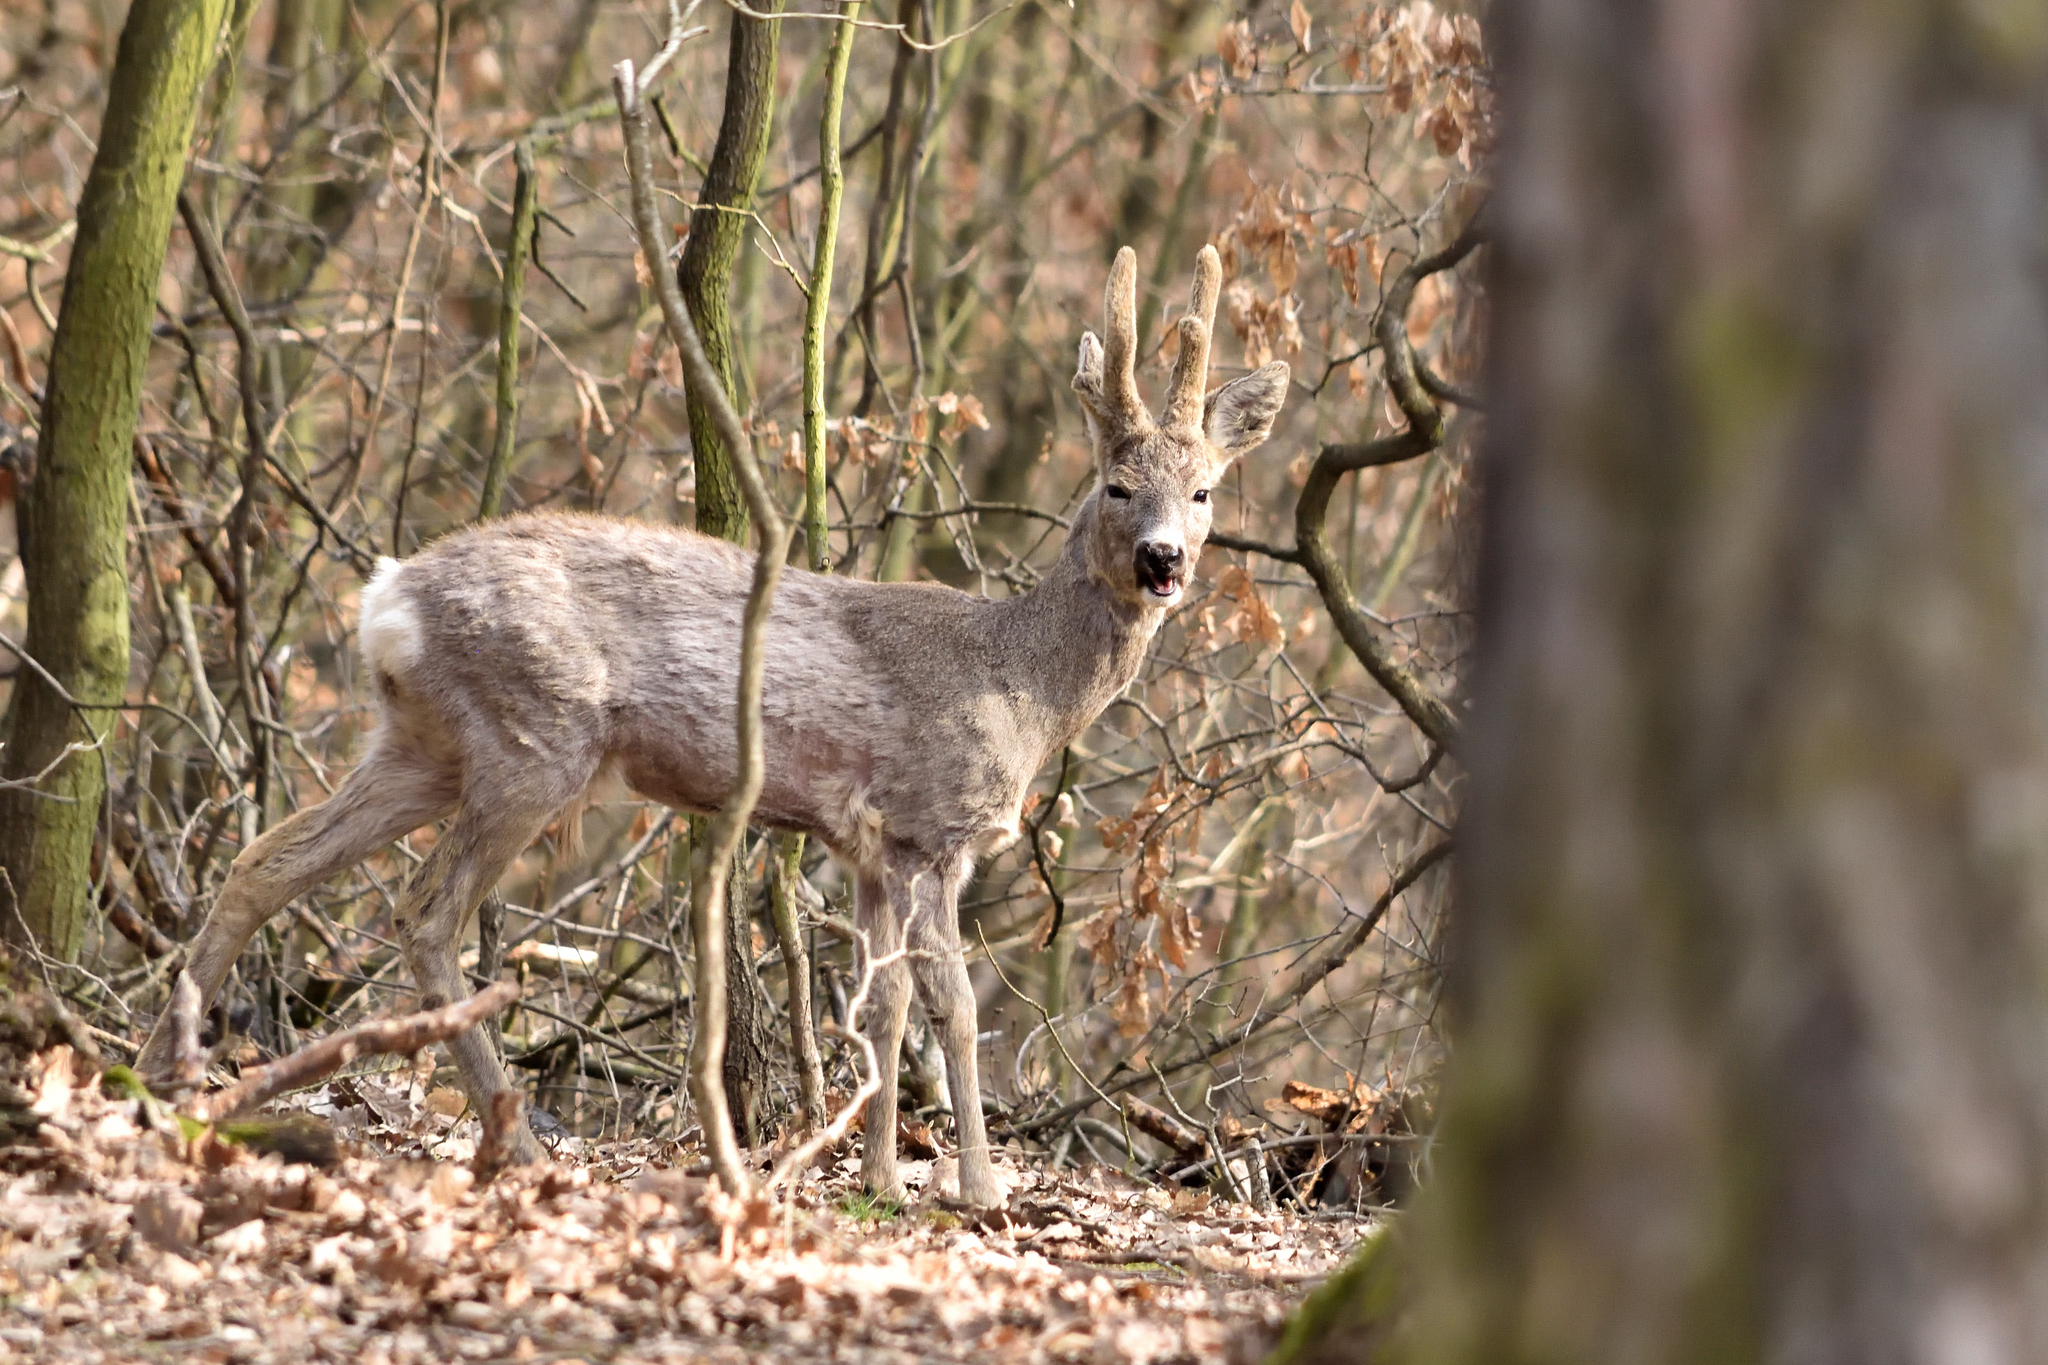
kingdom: Animalia
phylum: Chordata
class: Mammalia
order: Artiodactyla
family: Cervidae
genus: Capreolus
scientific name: Capreolus capreolus
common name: Western roe deer
